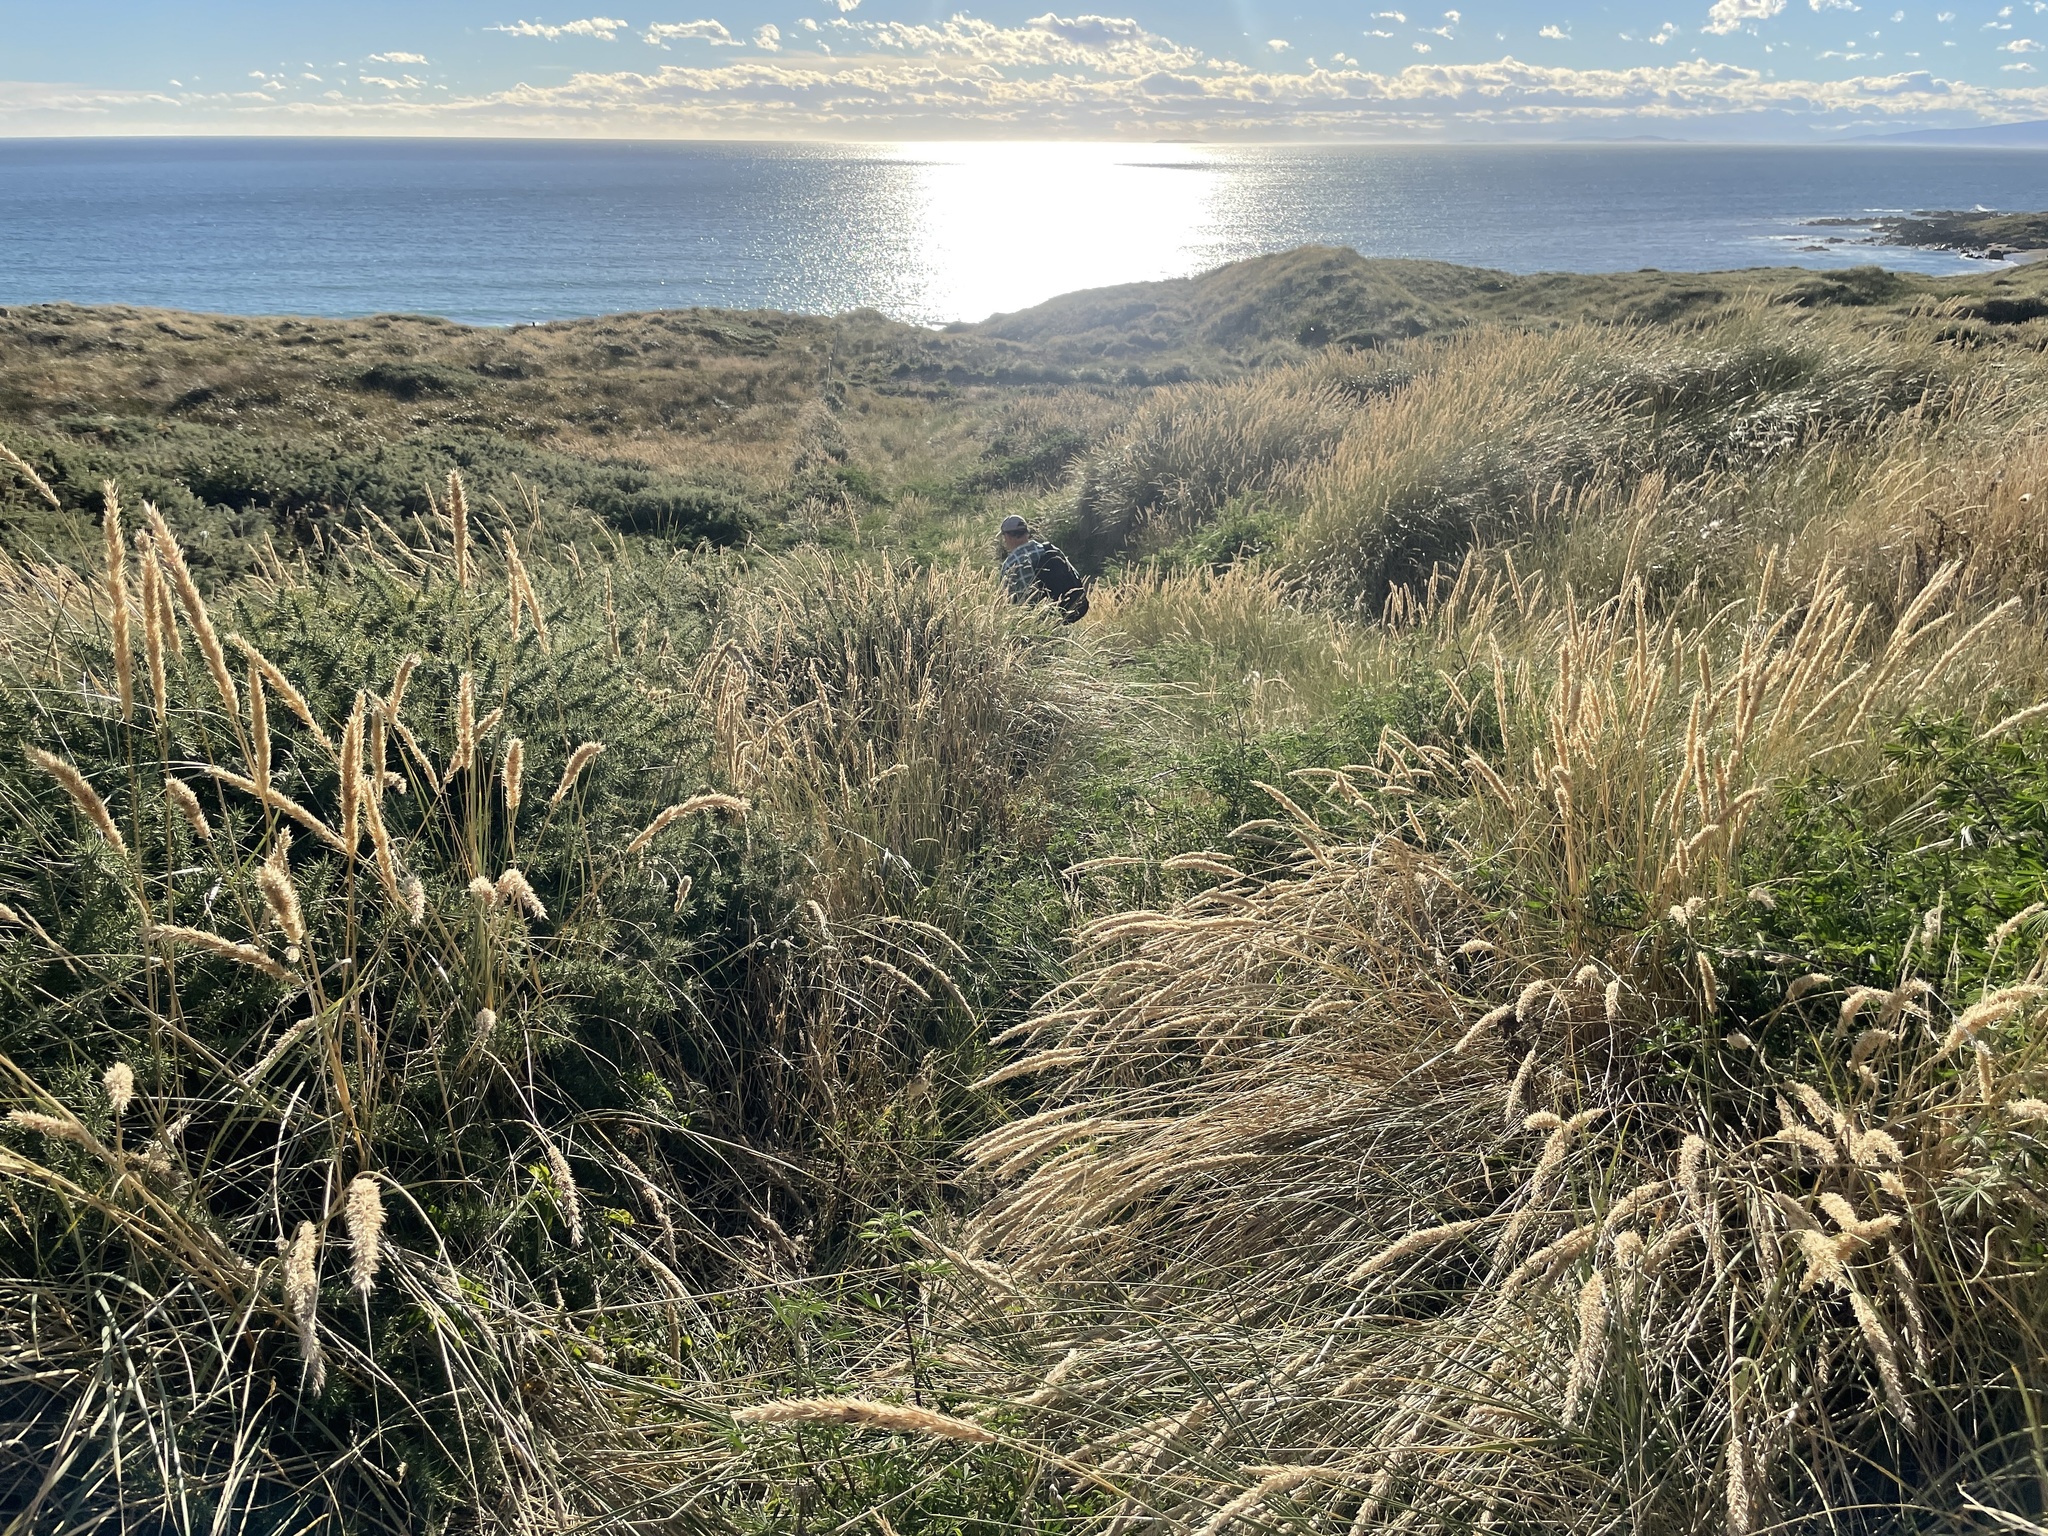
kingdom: Plantae
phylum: Tracheophyta
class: Liliopsida
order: Poales
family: Poaceae
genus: Calamagrostis
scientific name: Calamagrostis arenaria
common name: European beachgrass
